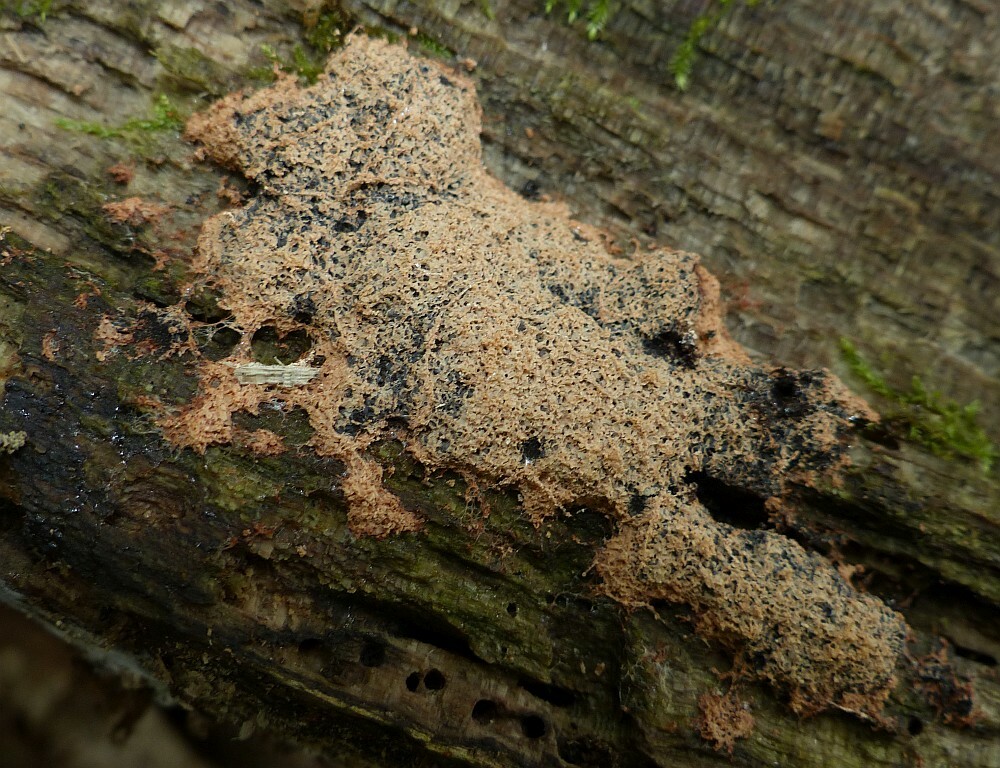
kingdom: Protozoa
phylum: Mycetozoa
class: Myxomycetes
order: Physarales
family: Physaraceae
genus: Fuligo
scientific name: Fuligo septica
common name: Dog vomit slime mold
